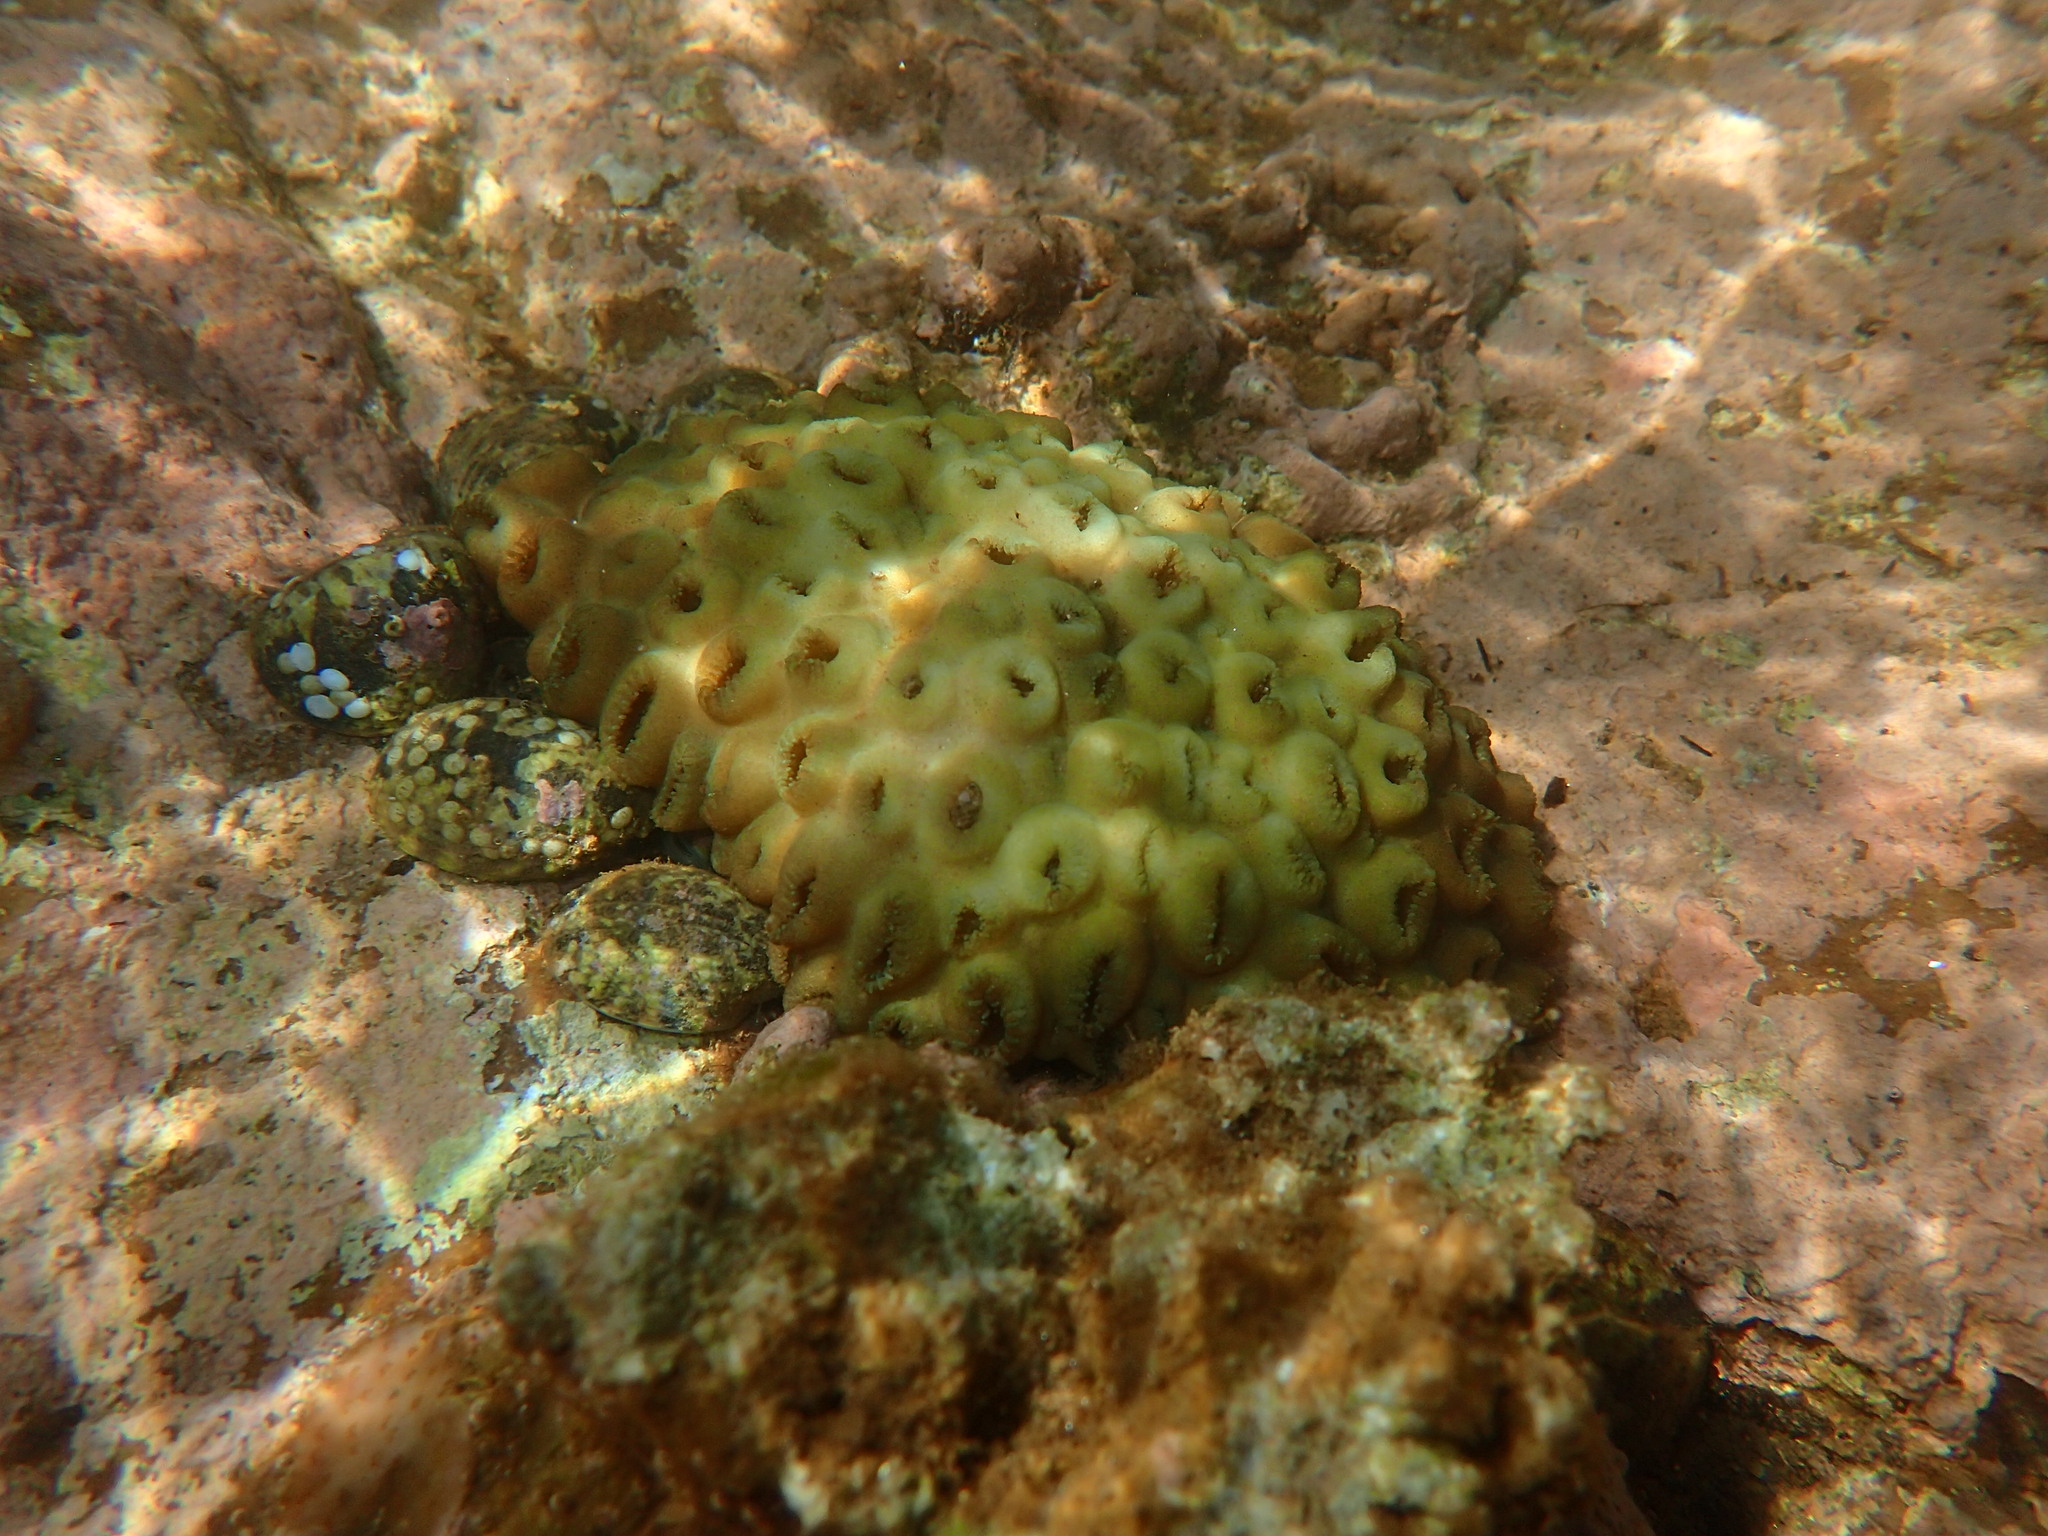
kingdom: Animalia
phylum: Cnidaria
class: Anthozoa
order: Zoantharia
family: Sphenopidae
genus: Palythoa
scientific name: Palythoa tuberculosa
